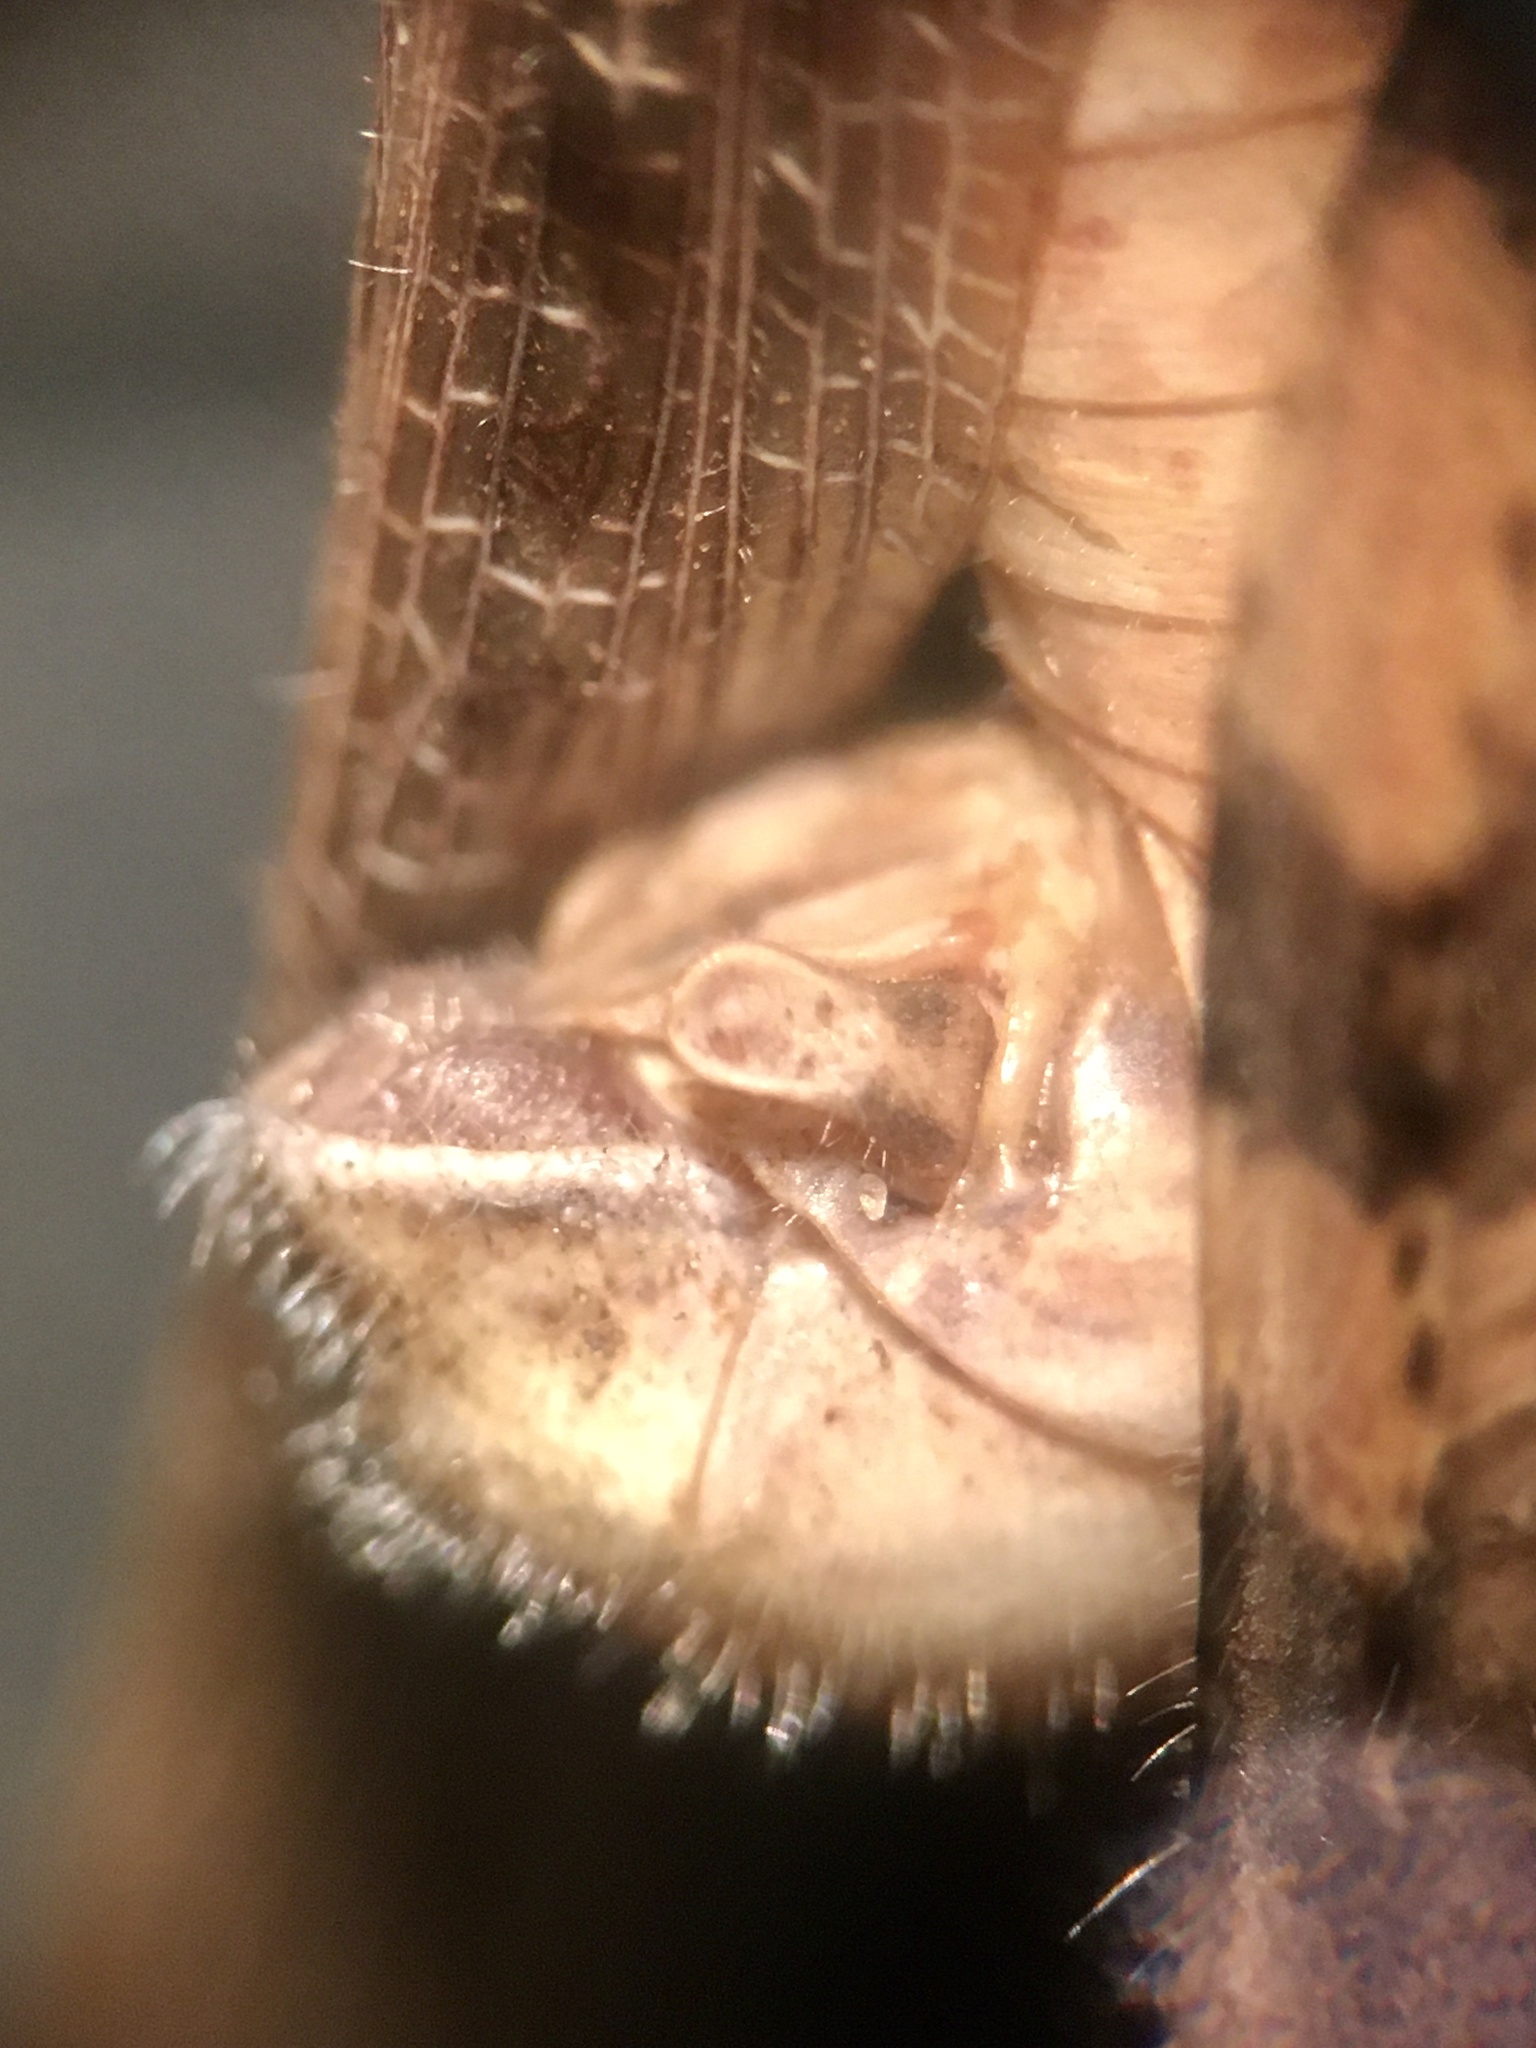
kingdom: Animalia
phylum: Arthropoda
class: Insecta
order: Orthoptera
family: Acrididae
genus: Melanoplus
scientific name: Melanoplus foedus
